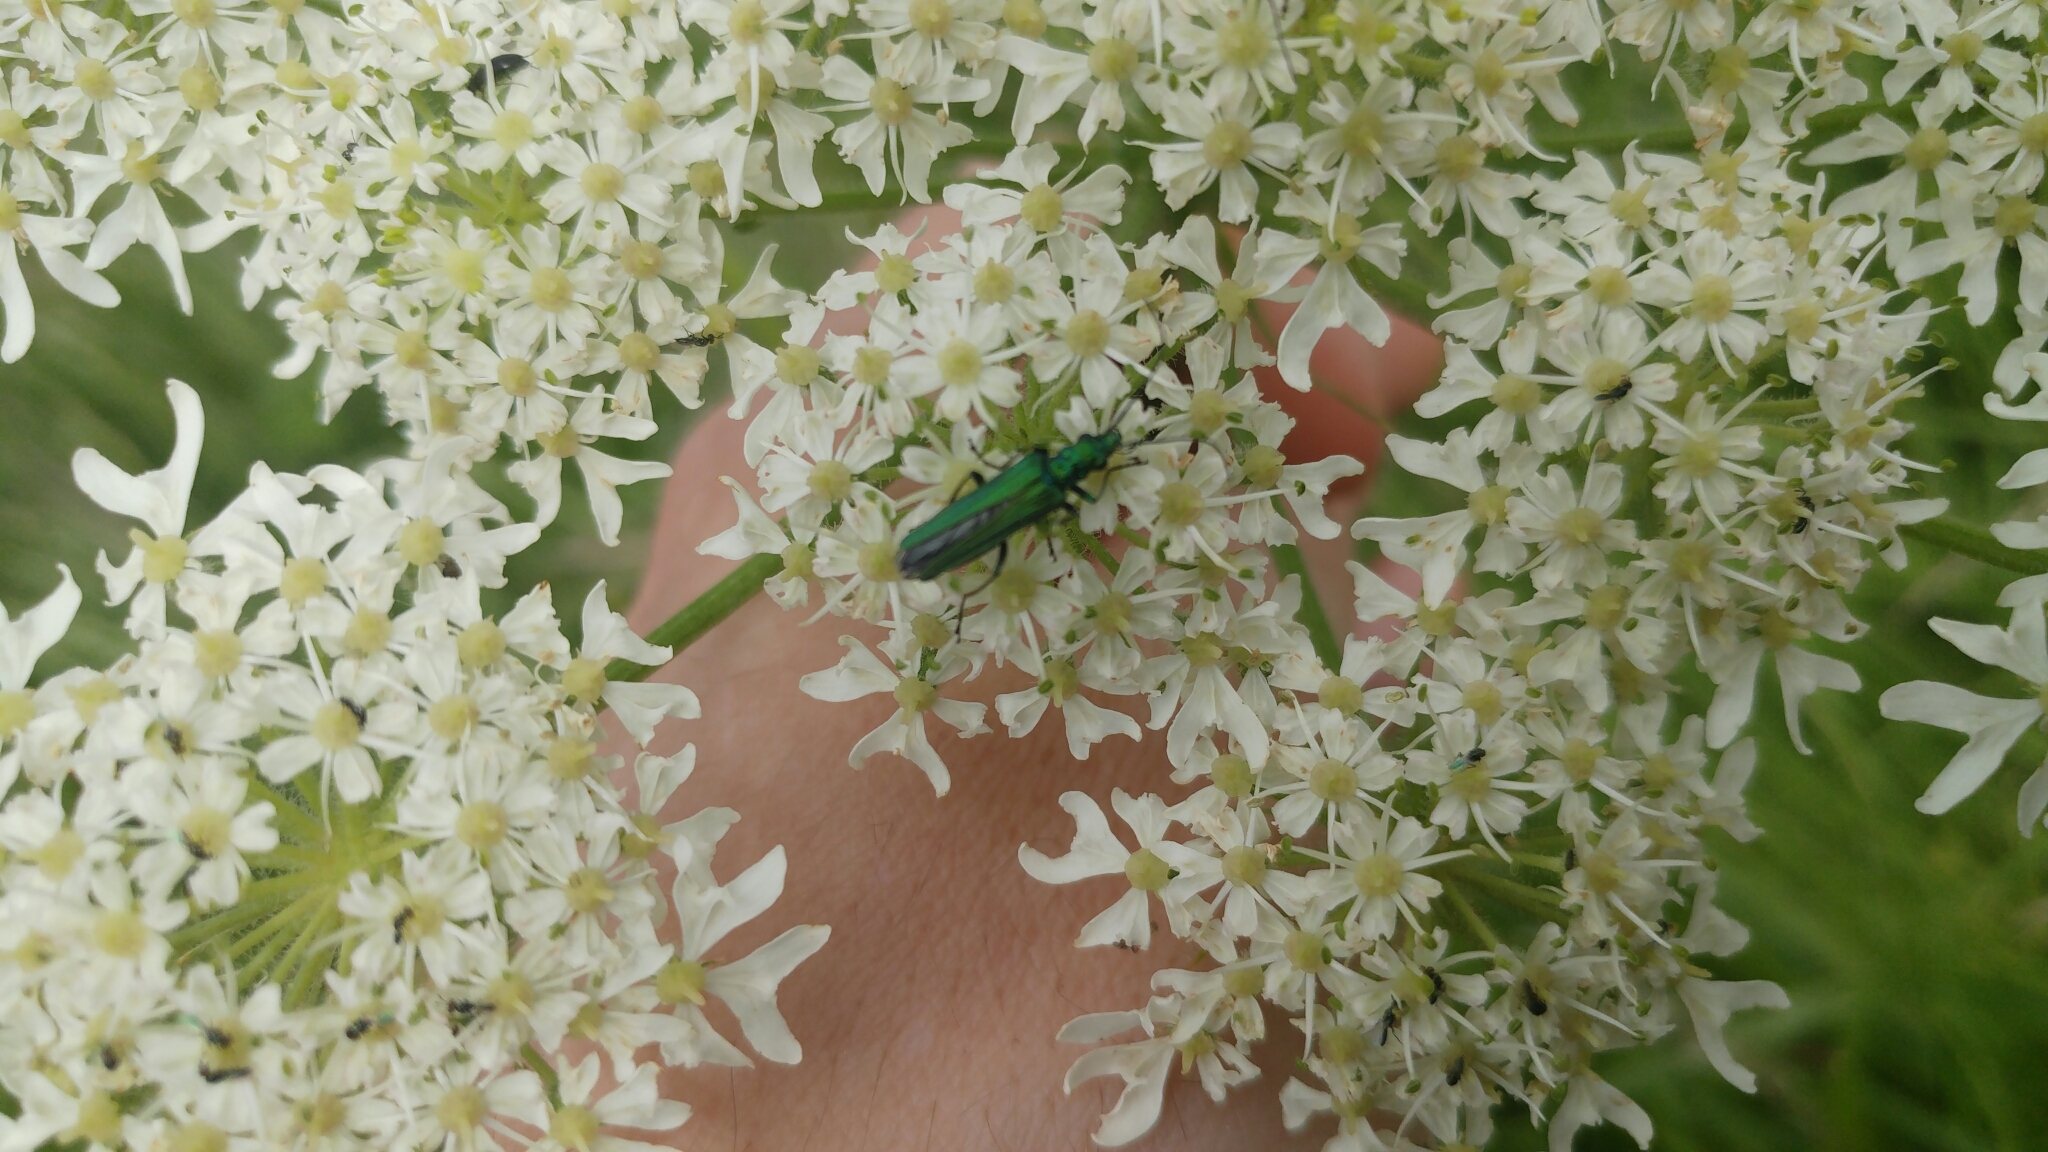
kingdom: Animalia
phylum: Arthropoda
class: Insecta
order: Coleoptera
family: Oedemeridae
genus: Oedemera
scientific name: Oedemera nobilis
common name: Swollen-thighed beetle
